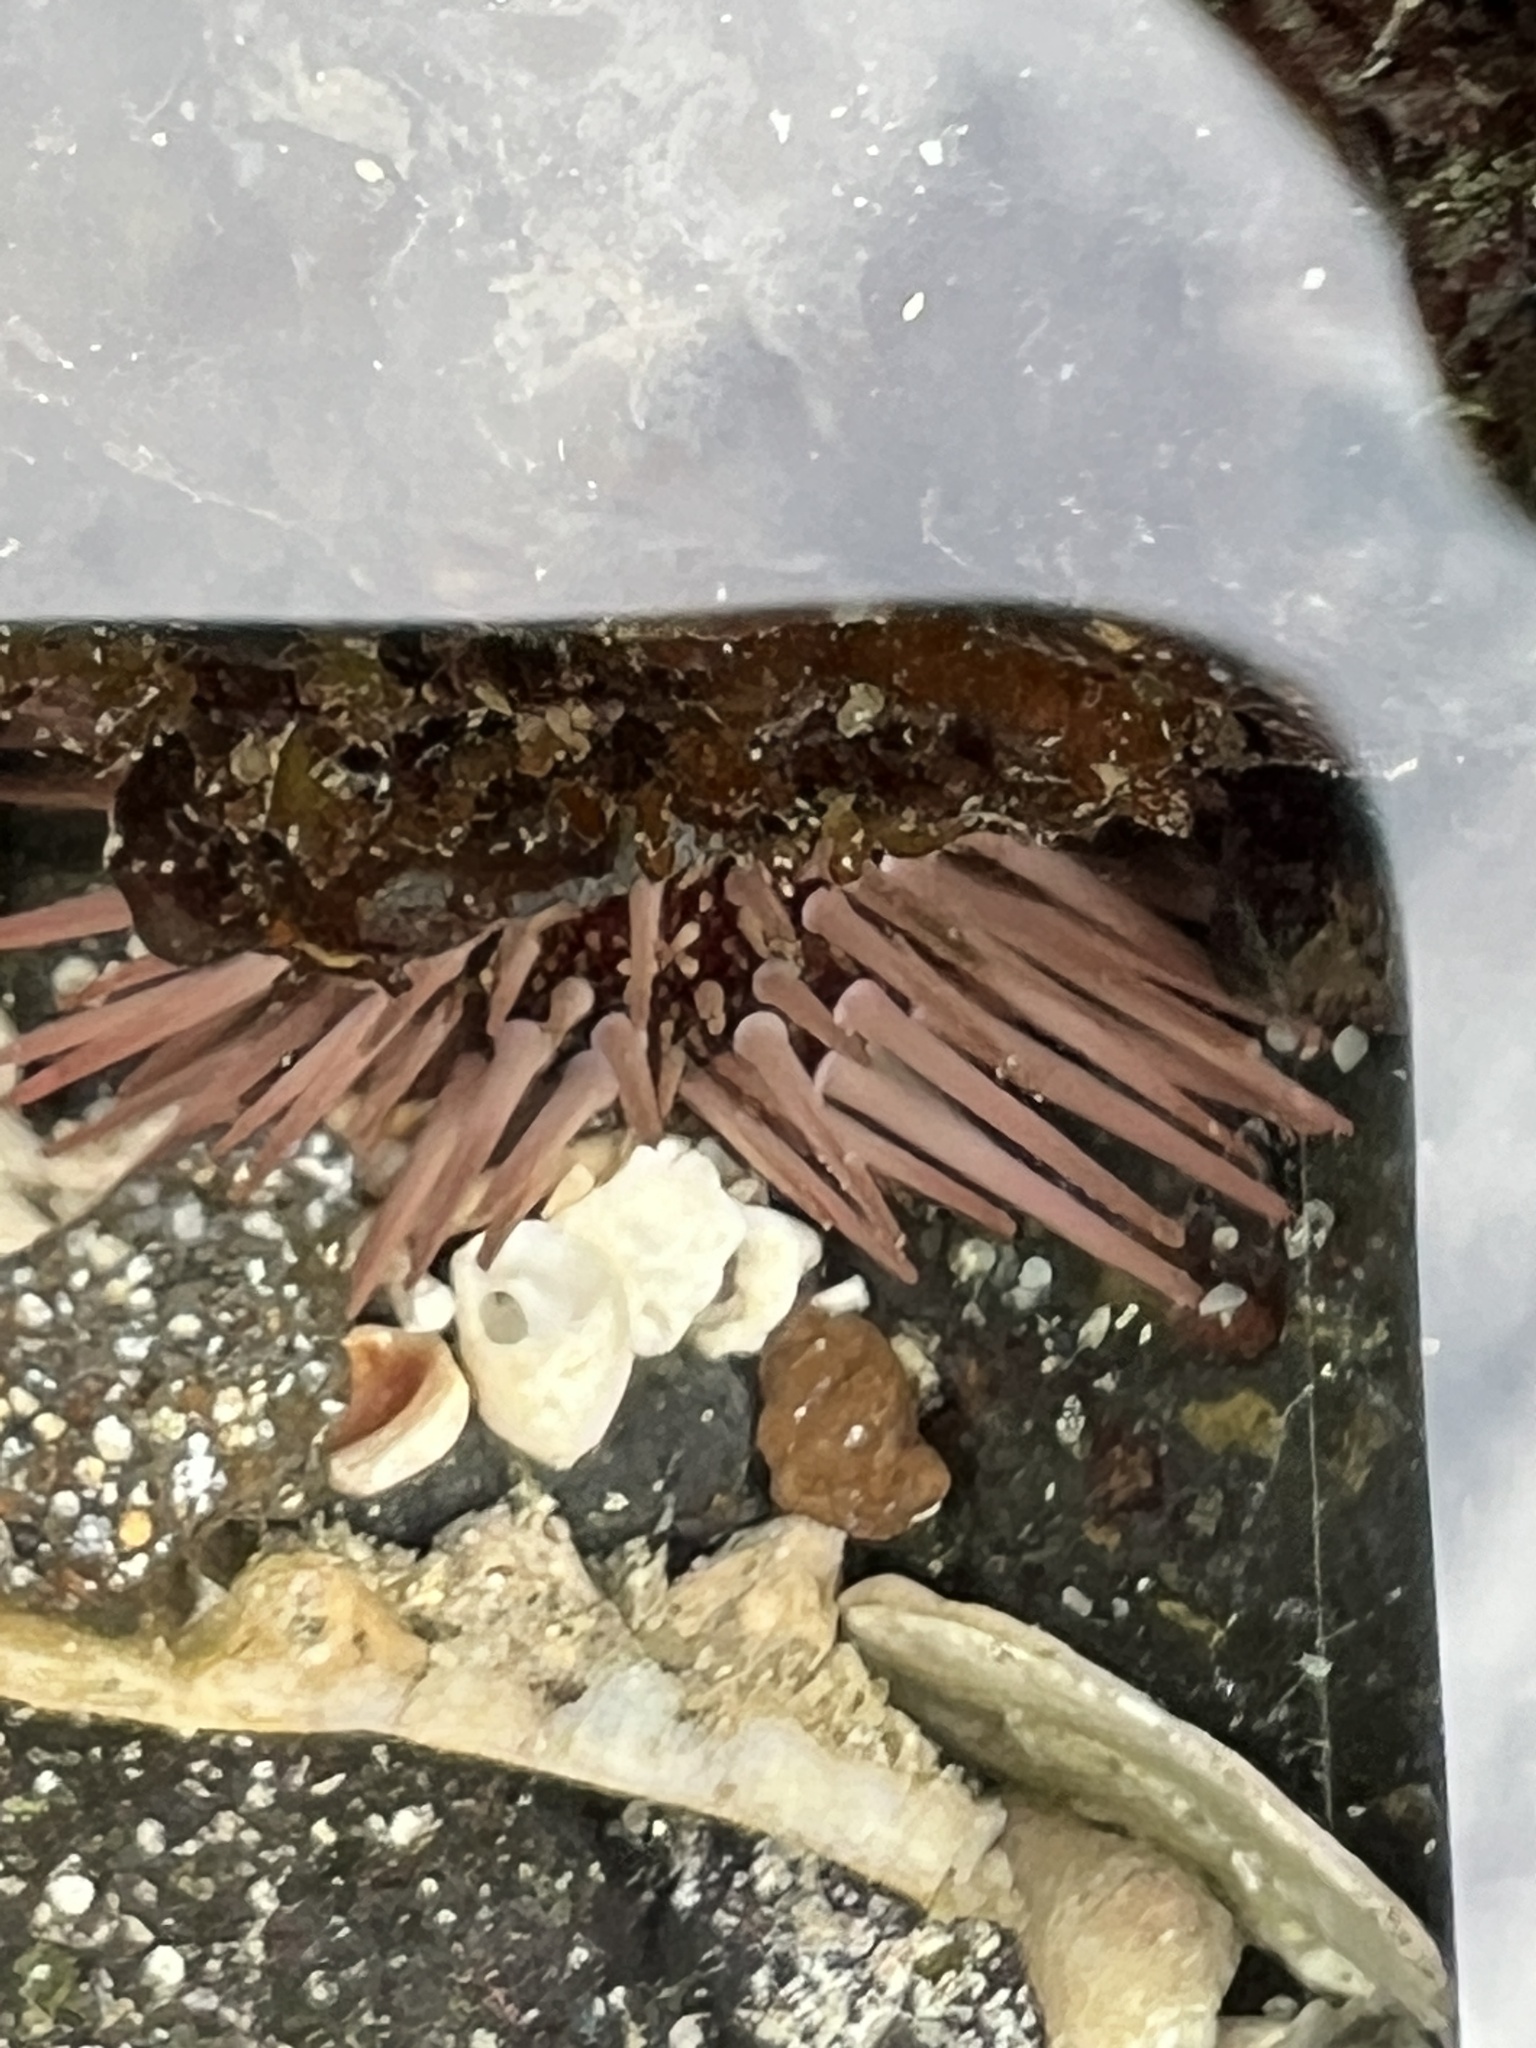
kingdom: Animalia
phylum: Echinodermata
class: Echinoidea
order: Camarodonta
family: Echinometridae
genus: Echinometra
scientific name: Echinometra mathaei
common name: Rock-boring urchin
